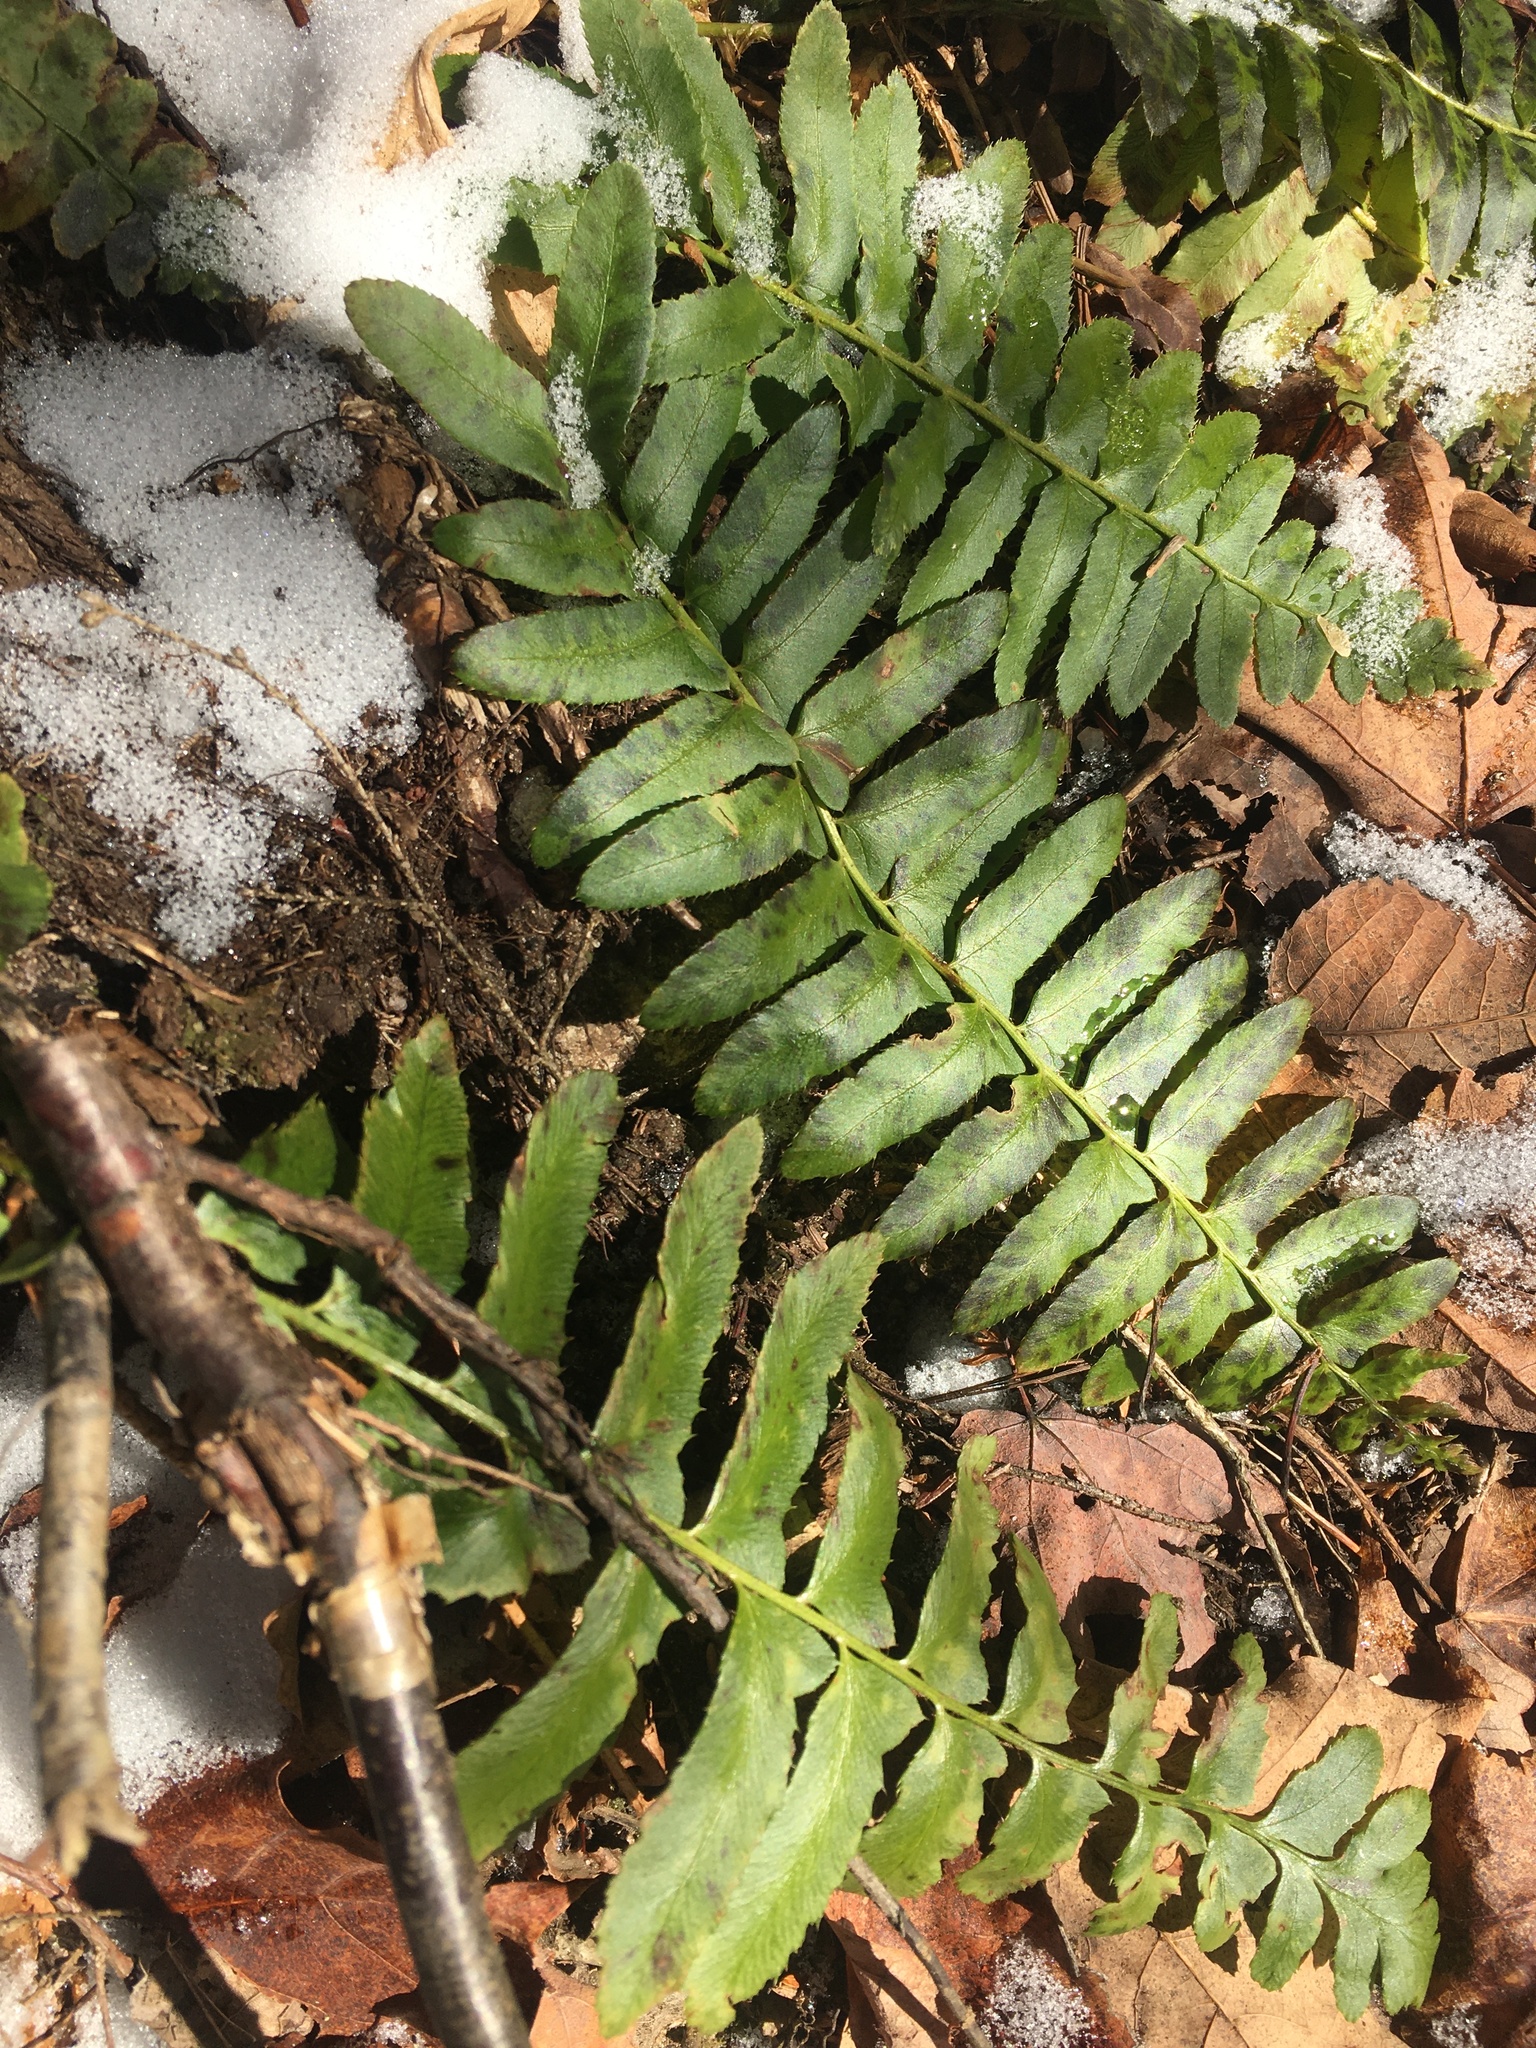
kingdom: Plantae
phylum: Tracheophyta
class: Polypodiopsida
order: Polypodiales
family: Dryopteridaceae
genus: Polystichum
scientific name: Polystichum acrostichoides
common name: Christmas fern
